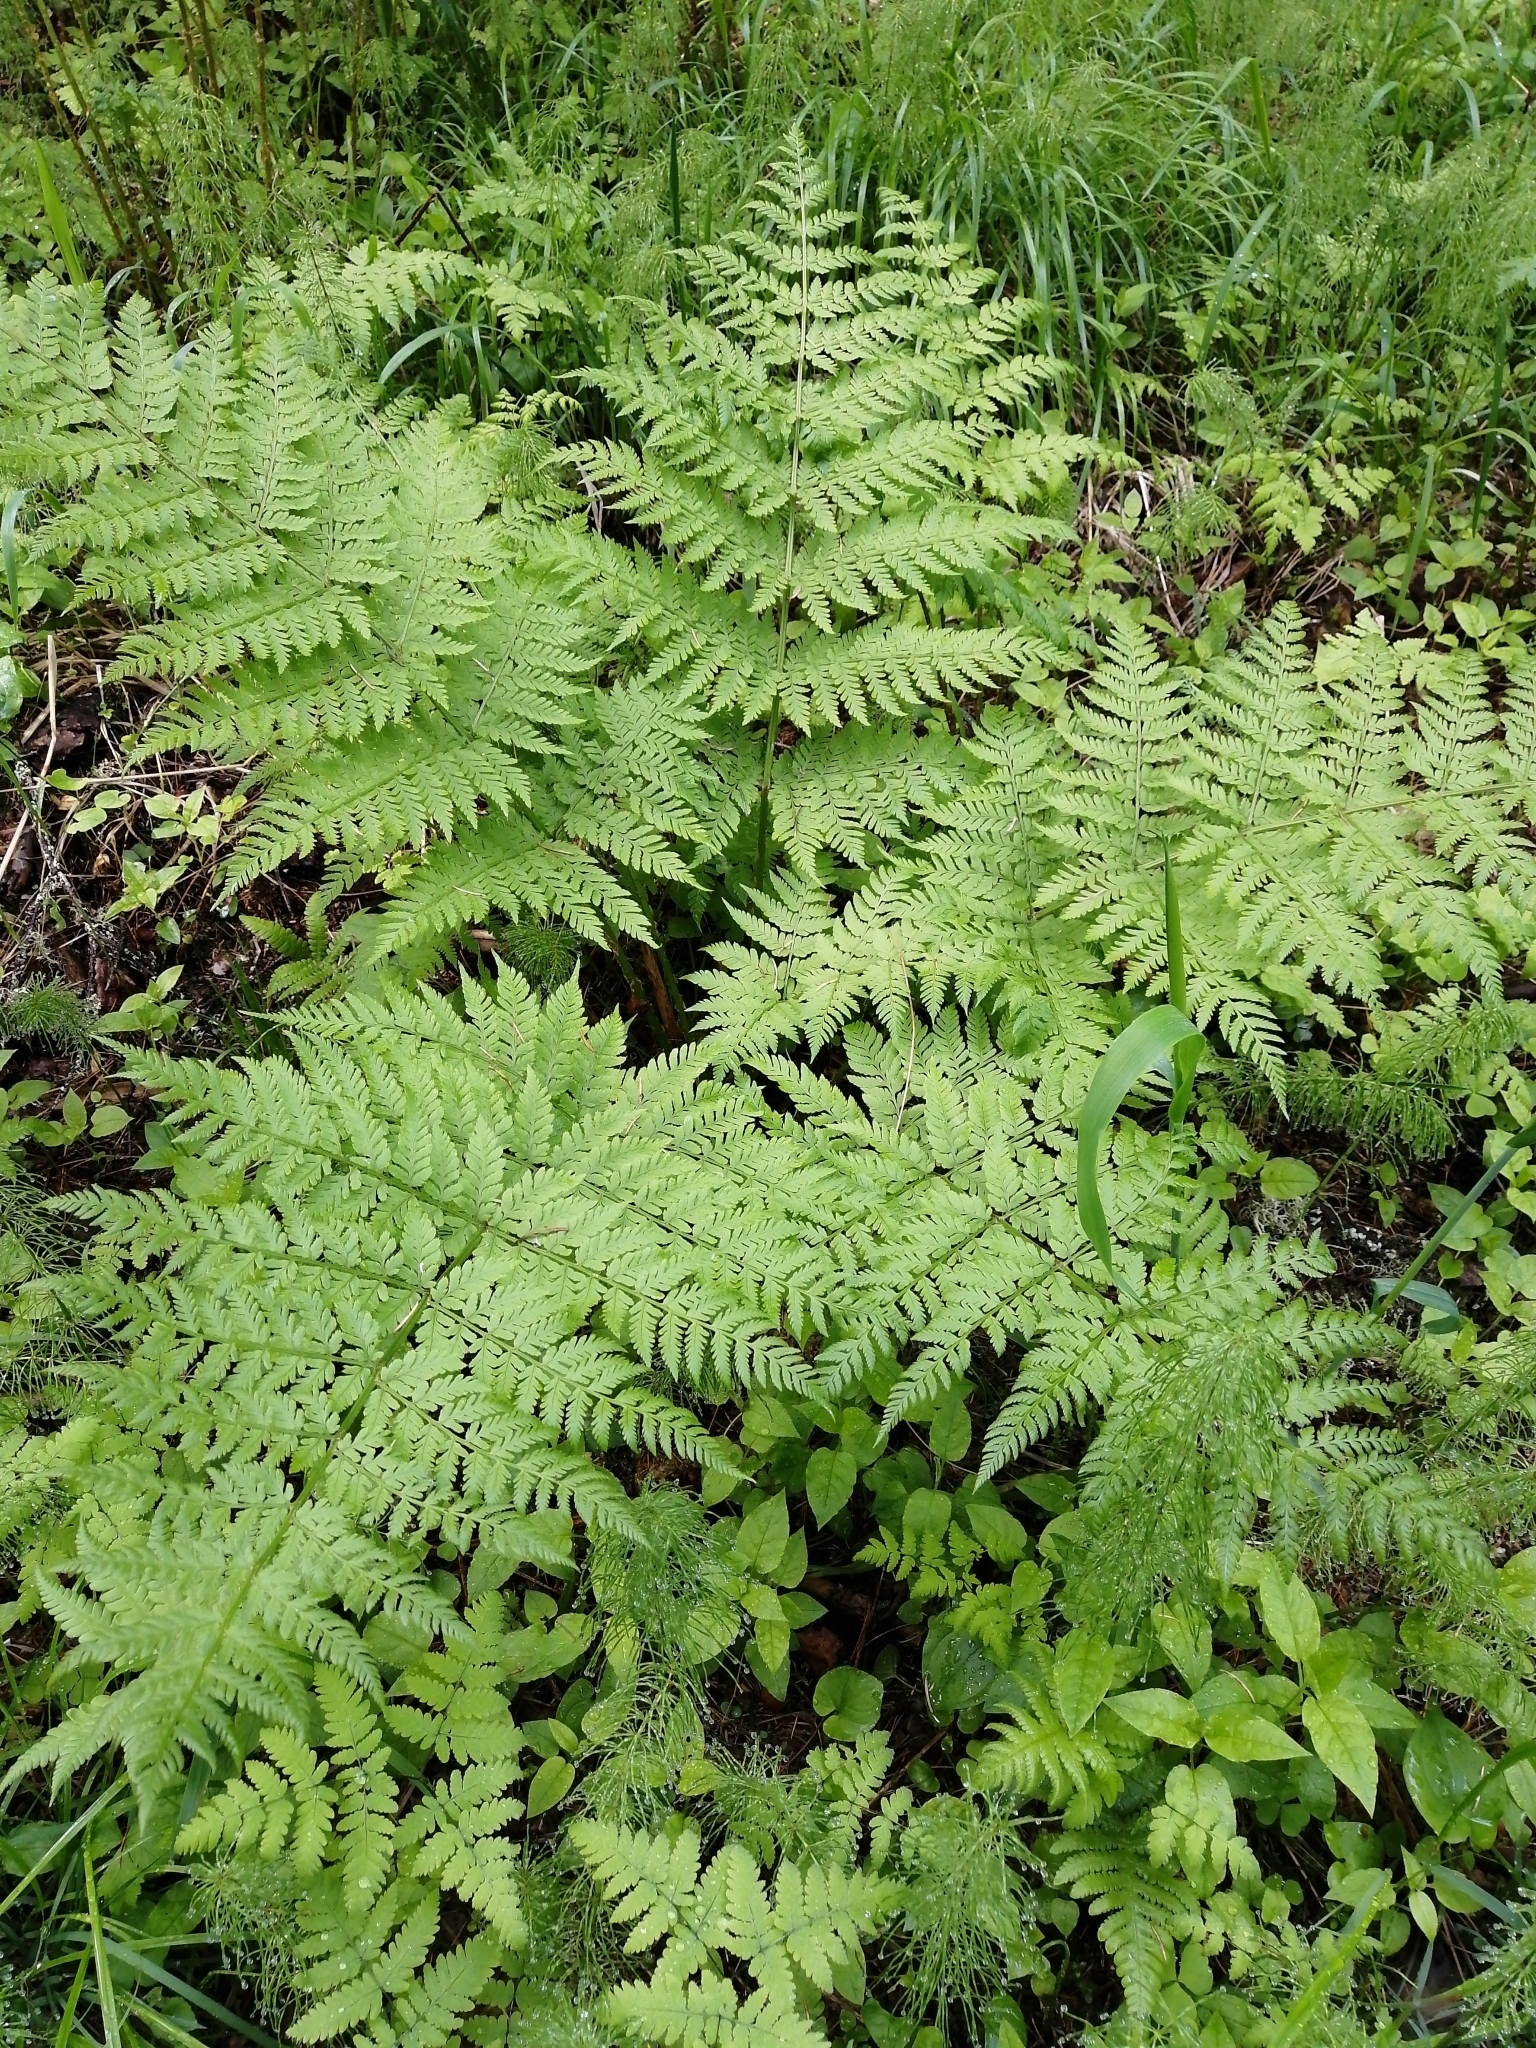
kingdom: Plantae
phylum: Tracheophyta
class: Polypodiopsida
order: Polypodiales
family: Dryopteridaceae
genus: Dryopteris
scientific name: Dryopteris expansa
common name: Northern buckler fern
